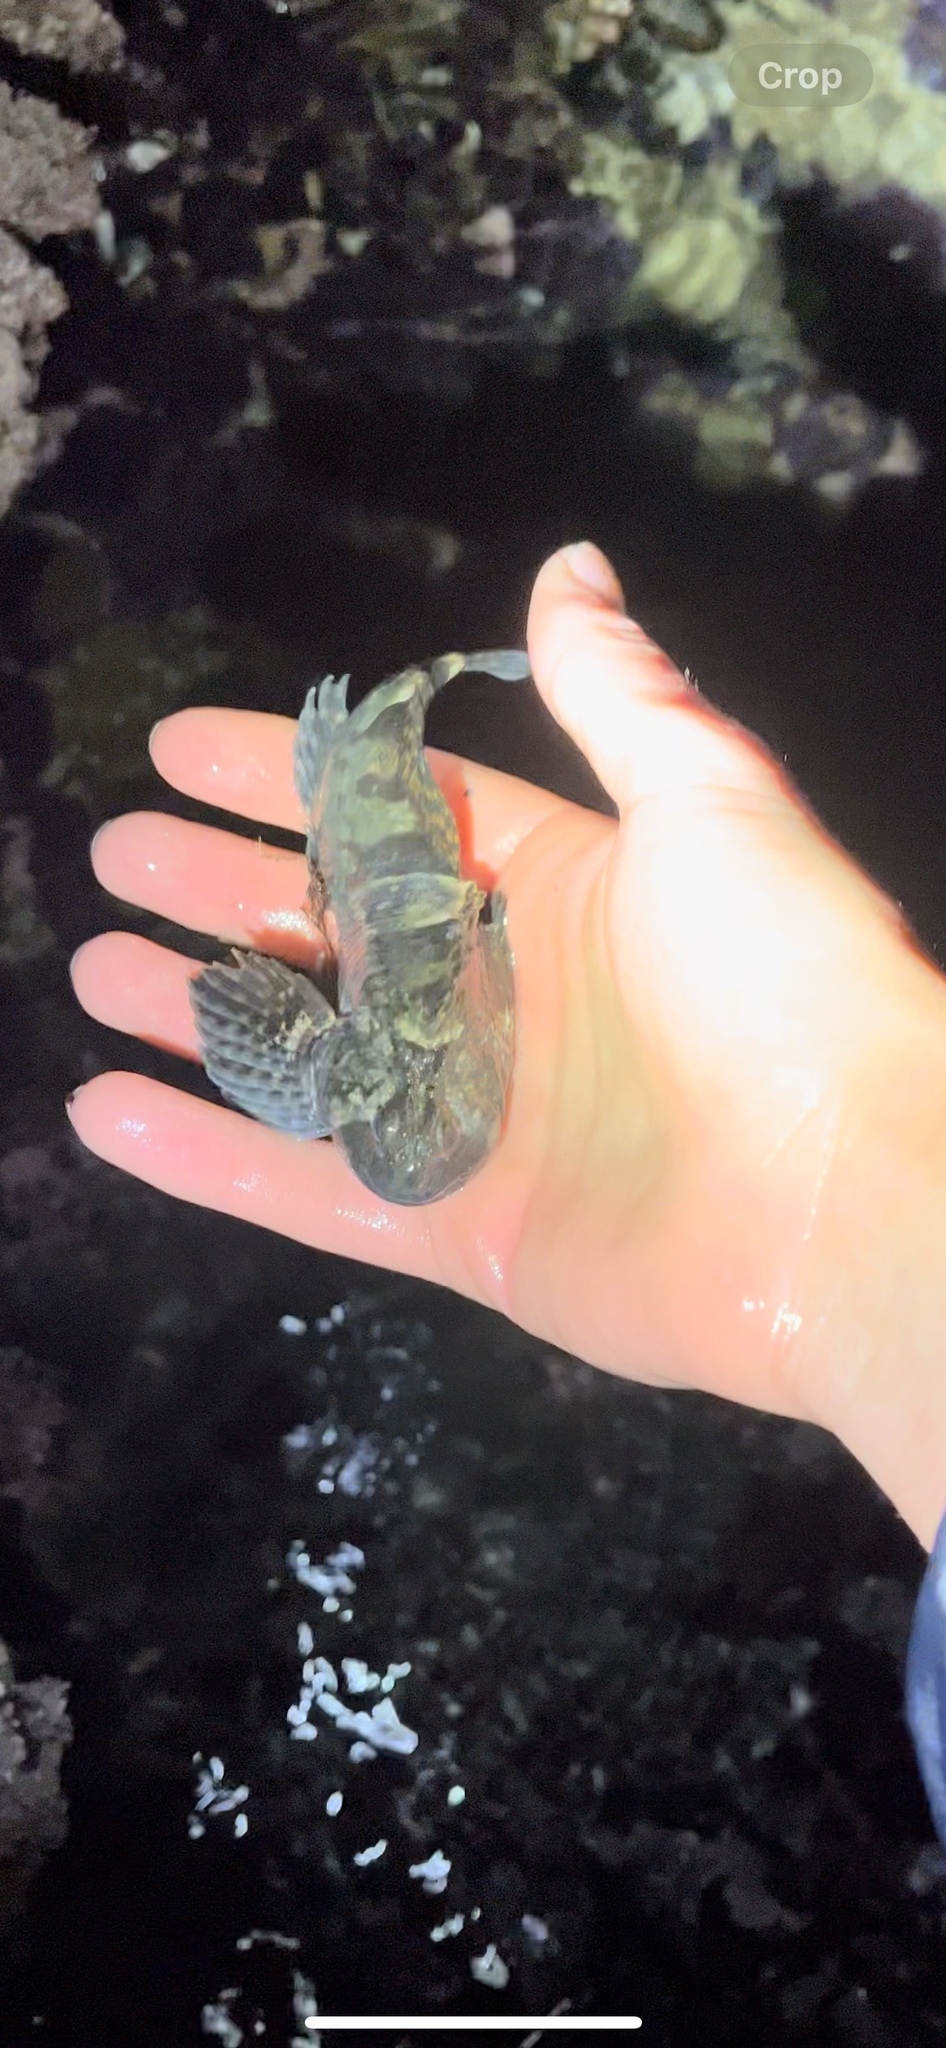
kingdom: Animalia
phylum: Chordata
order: Scorpaeniformes
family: Cottidae
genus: Clinocottus
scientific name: Clinocottus globiceps
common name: Mosshead sculpin
